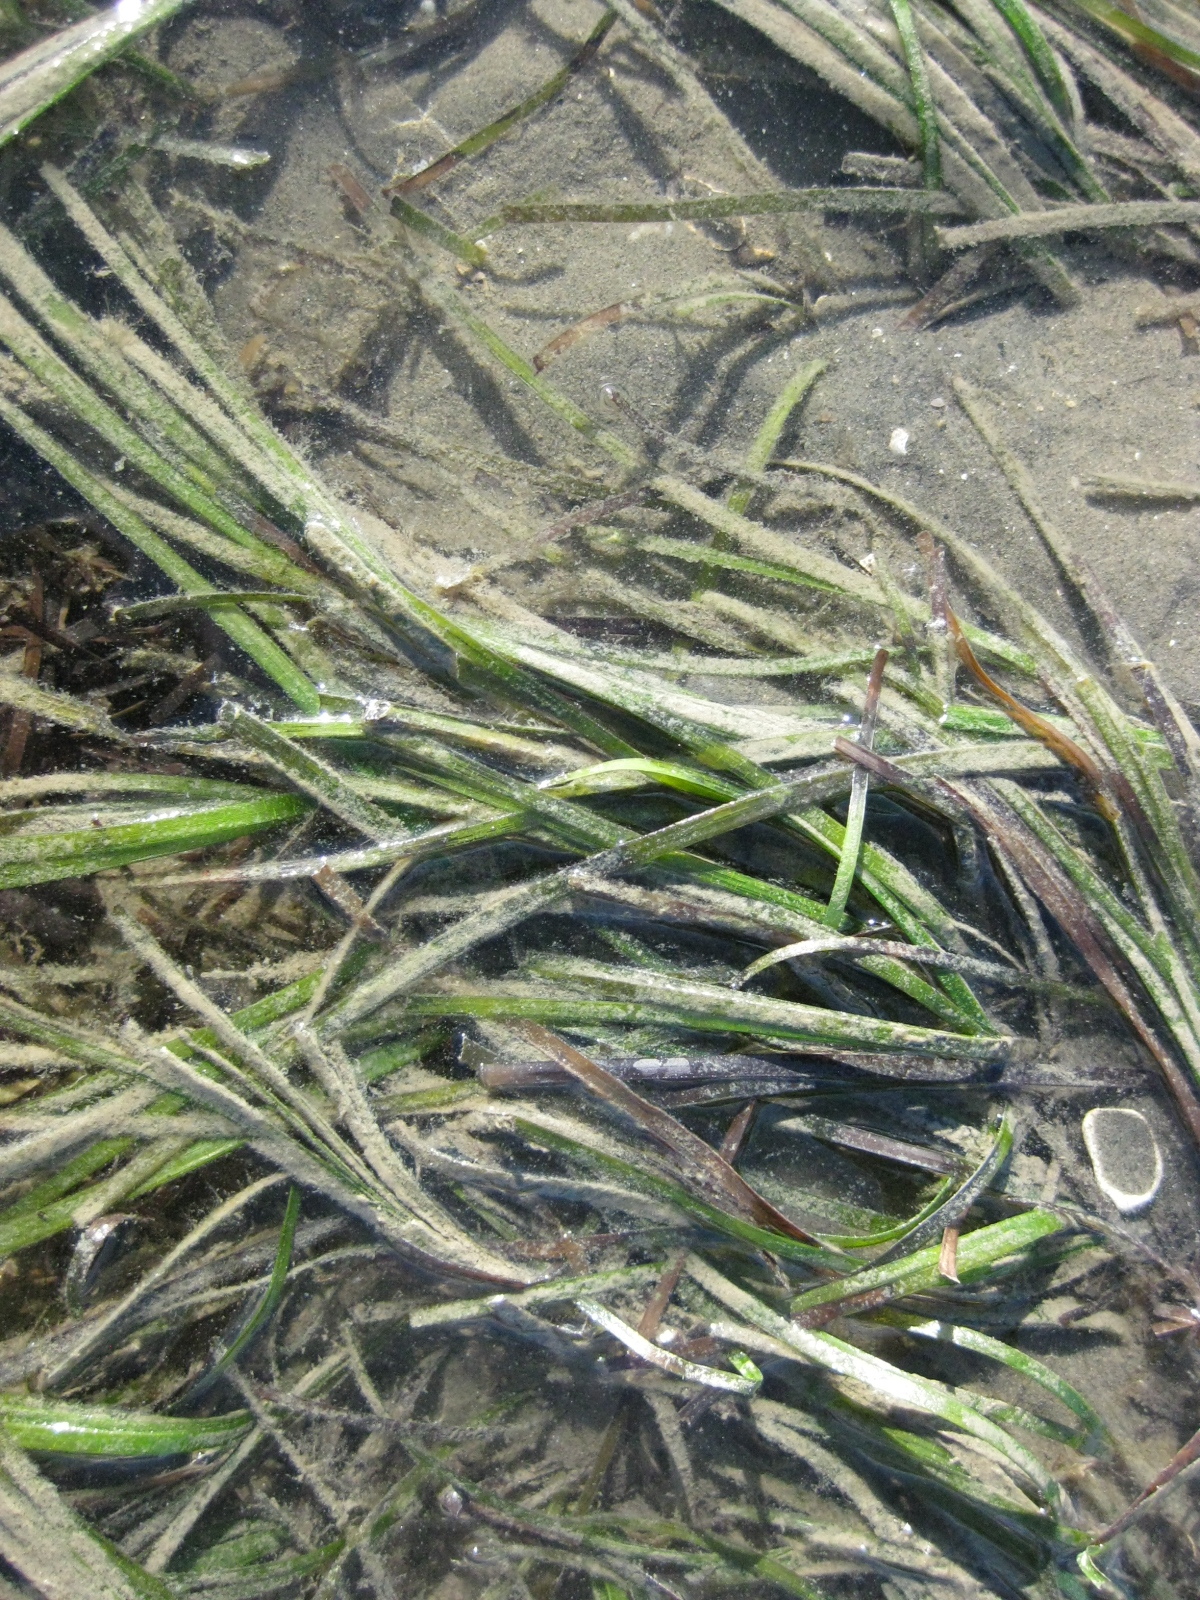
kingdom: Plantae
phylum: Tracheophyta
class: Liliopsida
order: Alismatales
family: Zosteraceae
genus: Zostera
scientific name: Zostera novazelandica
